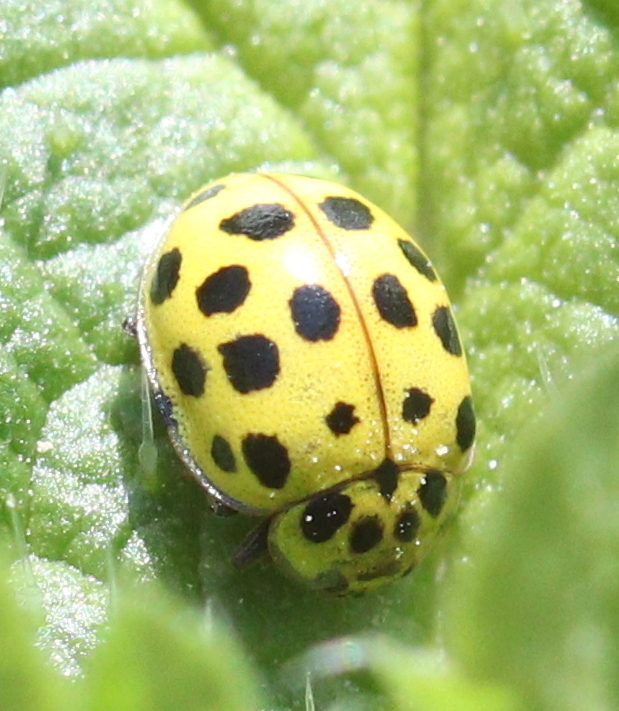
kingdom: Animalia
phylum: Arthropoda
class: Insecta
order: Coleoptera
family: Coccinellidae
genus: Psyllobora
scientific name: Psyllobora vigintiduopunctata
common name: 22-spot ladybird
